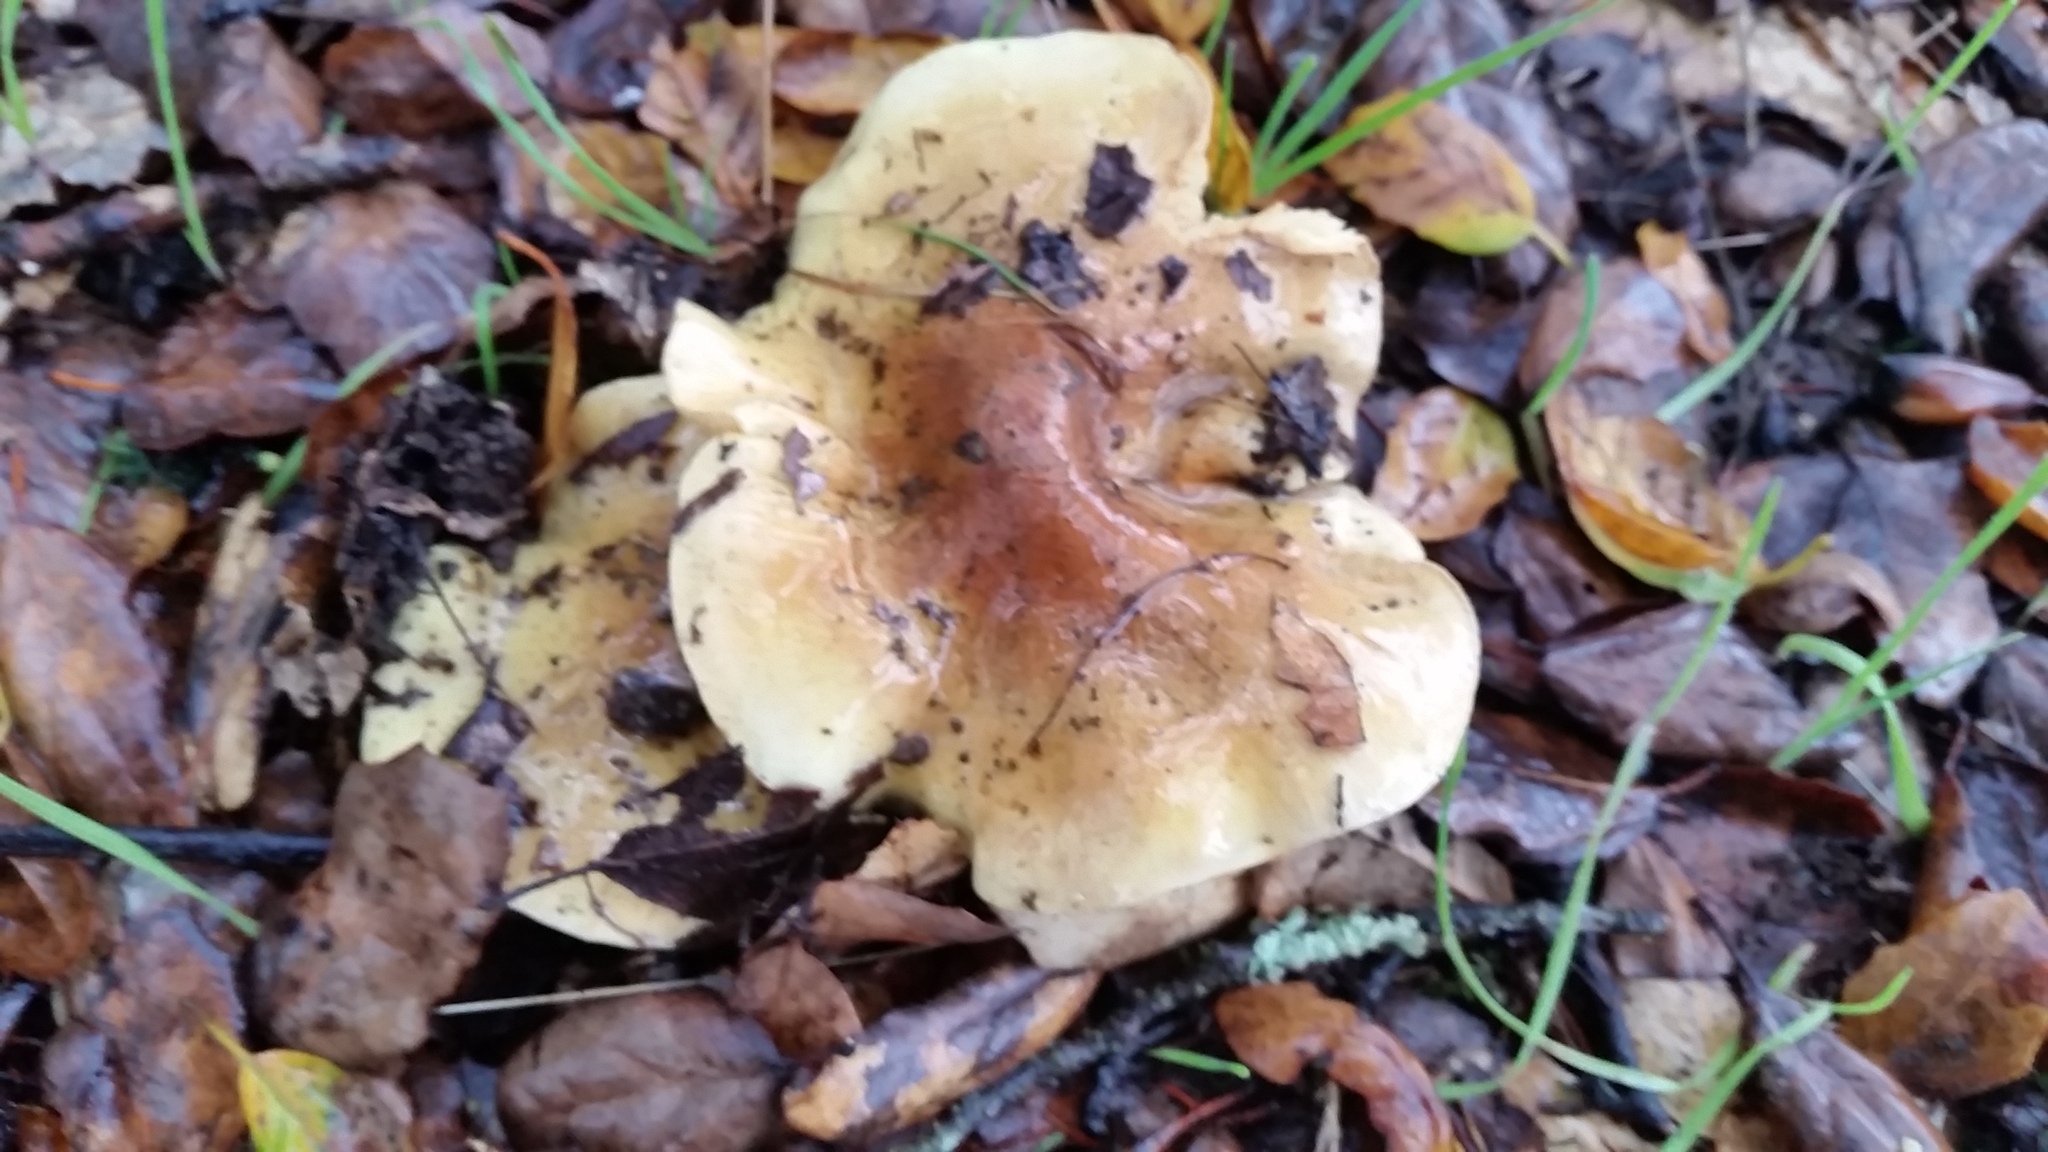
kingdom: Fungi
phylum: Basidiomycota
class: Agaricomycetes
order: Agaricales
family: Tricholomataceae
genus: Tricholoma
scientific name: Tricholoma equestre
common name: Yellow knight
